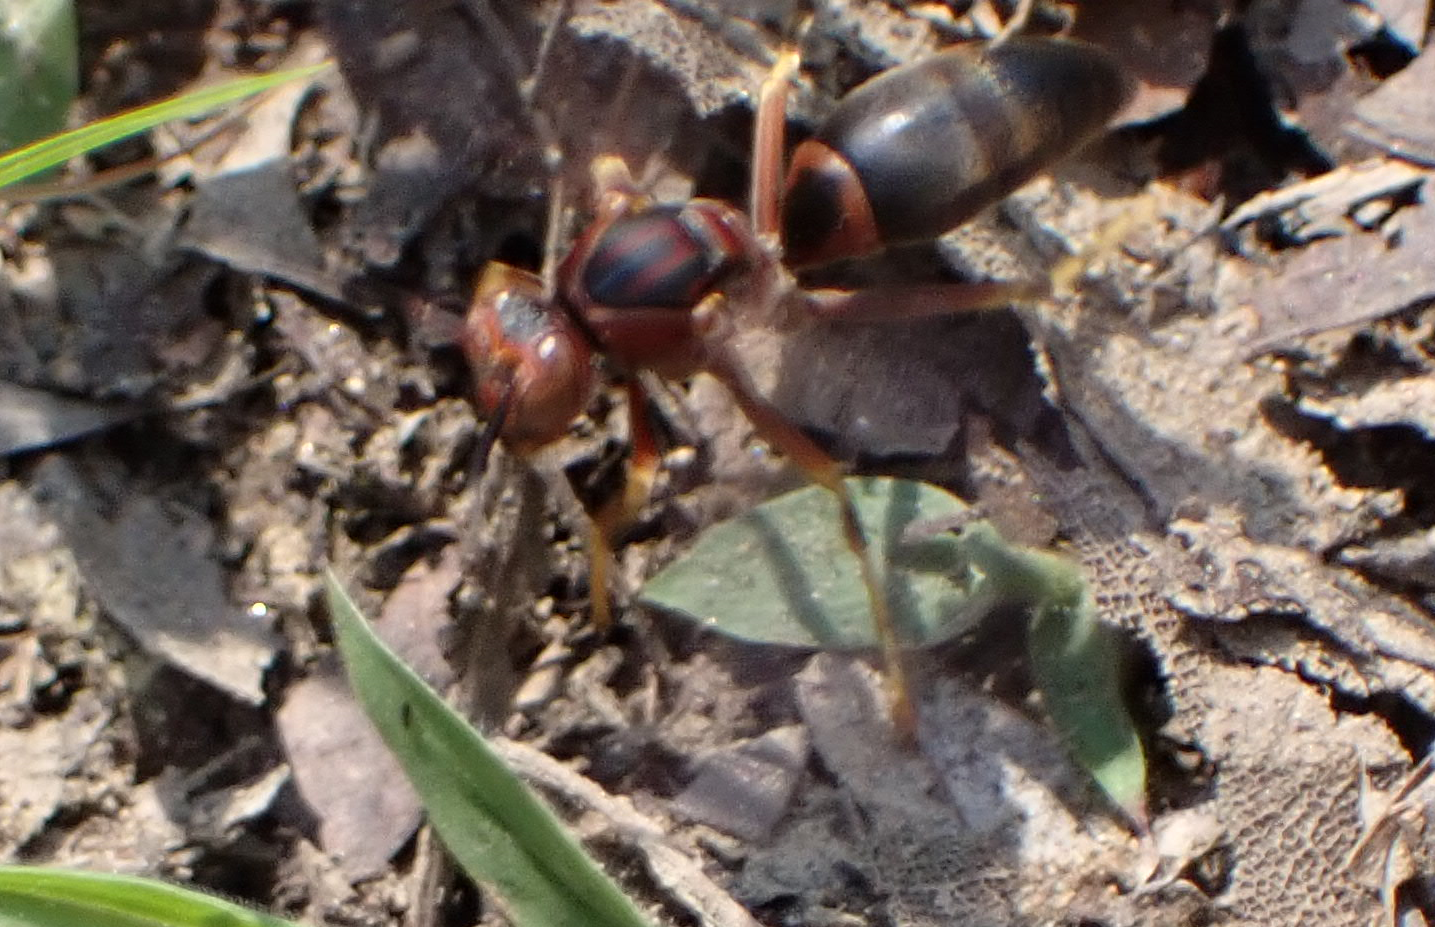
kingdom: Animalia
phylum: Arthropoda
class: Insecta
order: Hymenoptera
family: Eumenidae
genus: Polistes
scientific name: Polistes metricus
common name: Metric paper wasp
